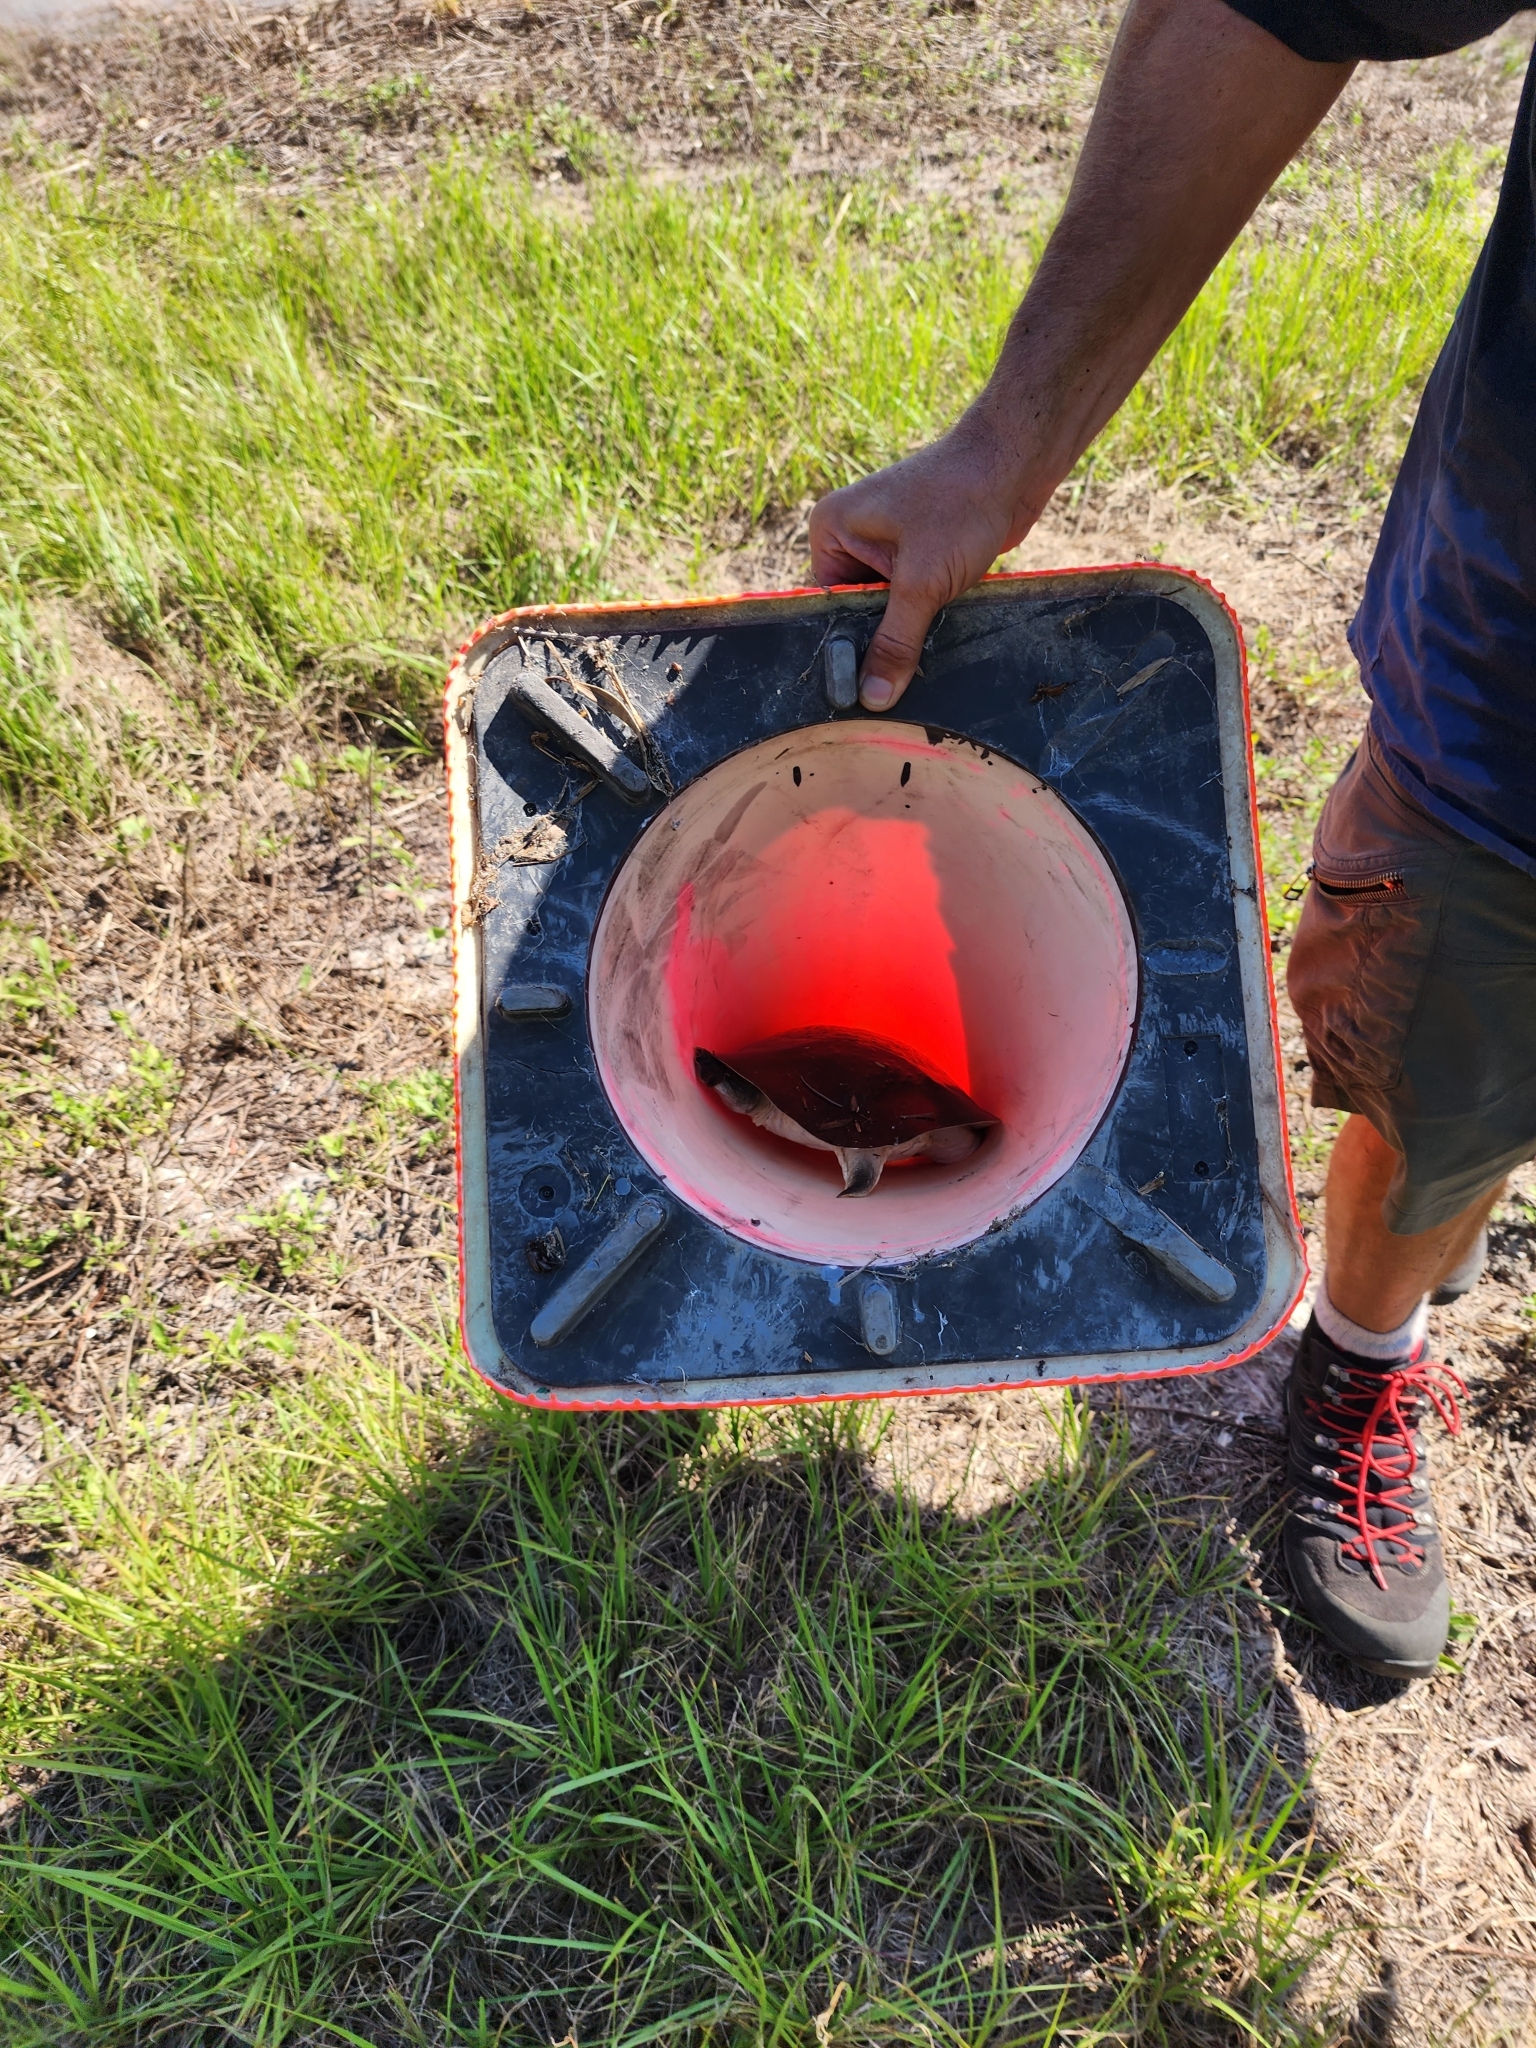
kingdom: Animalia
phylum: Chordata
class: Testudines
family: Trionychidae
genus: Apalone
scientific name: Apalone ferox
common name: Florida softshell turtle
